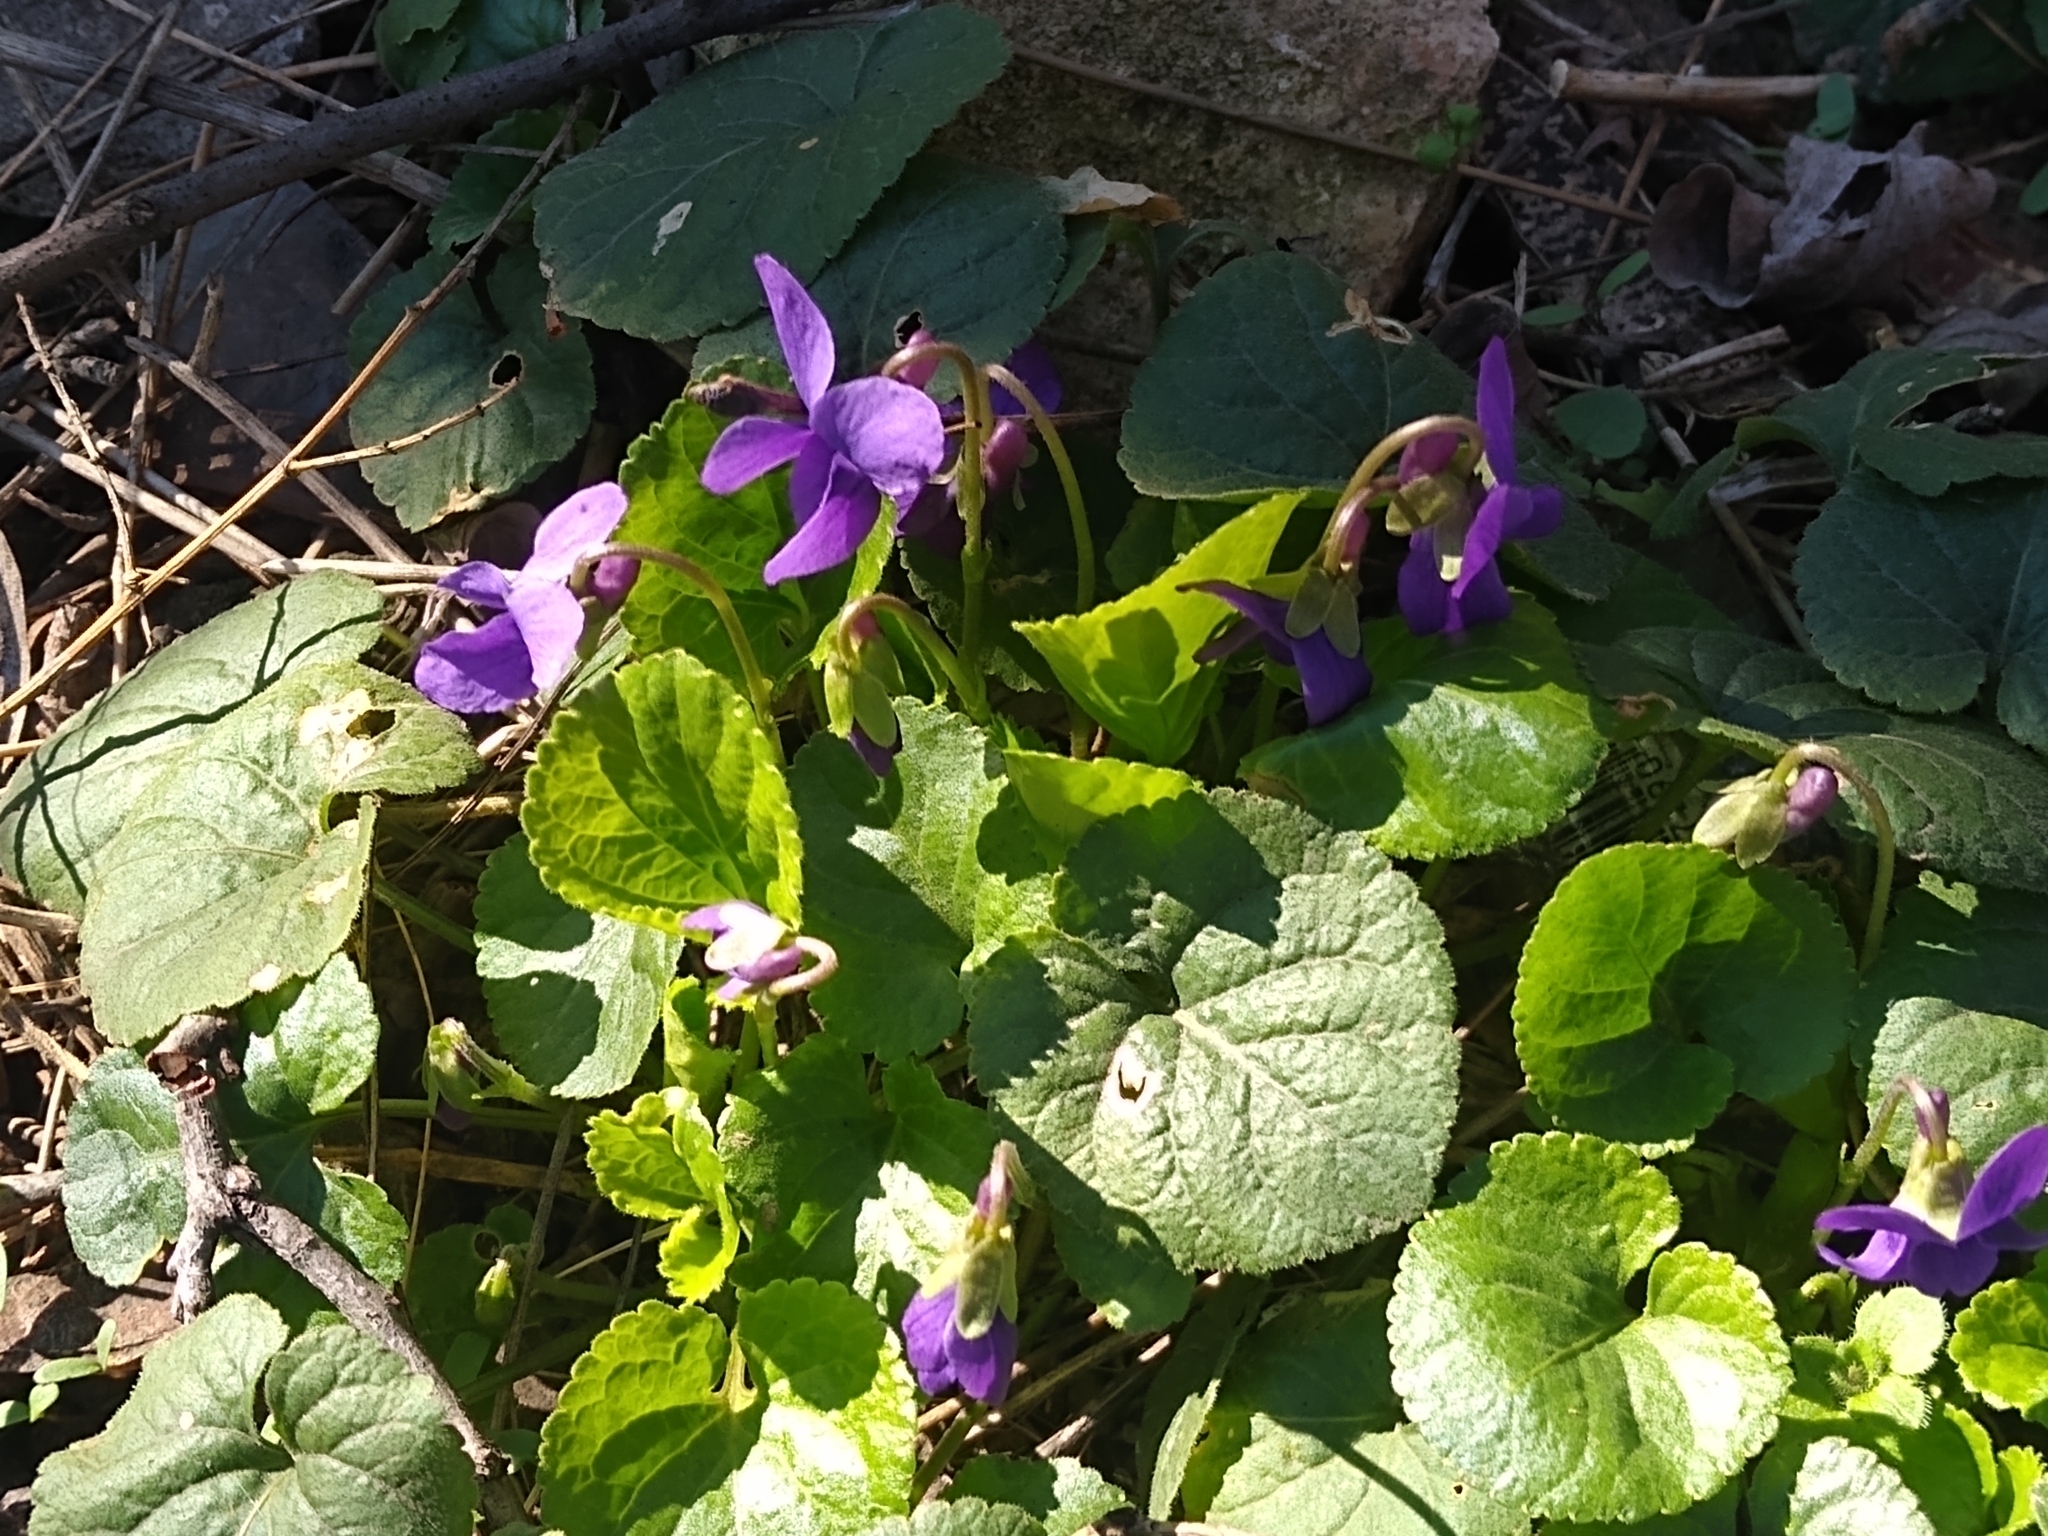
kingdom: Plantae
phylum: Tracheophyta
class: Magnoliopsida
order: Malpighiales
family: Violaceae
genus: Viola
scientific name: Viola odorata
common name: Sweet violet
